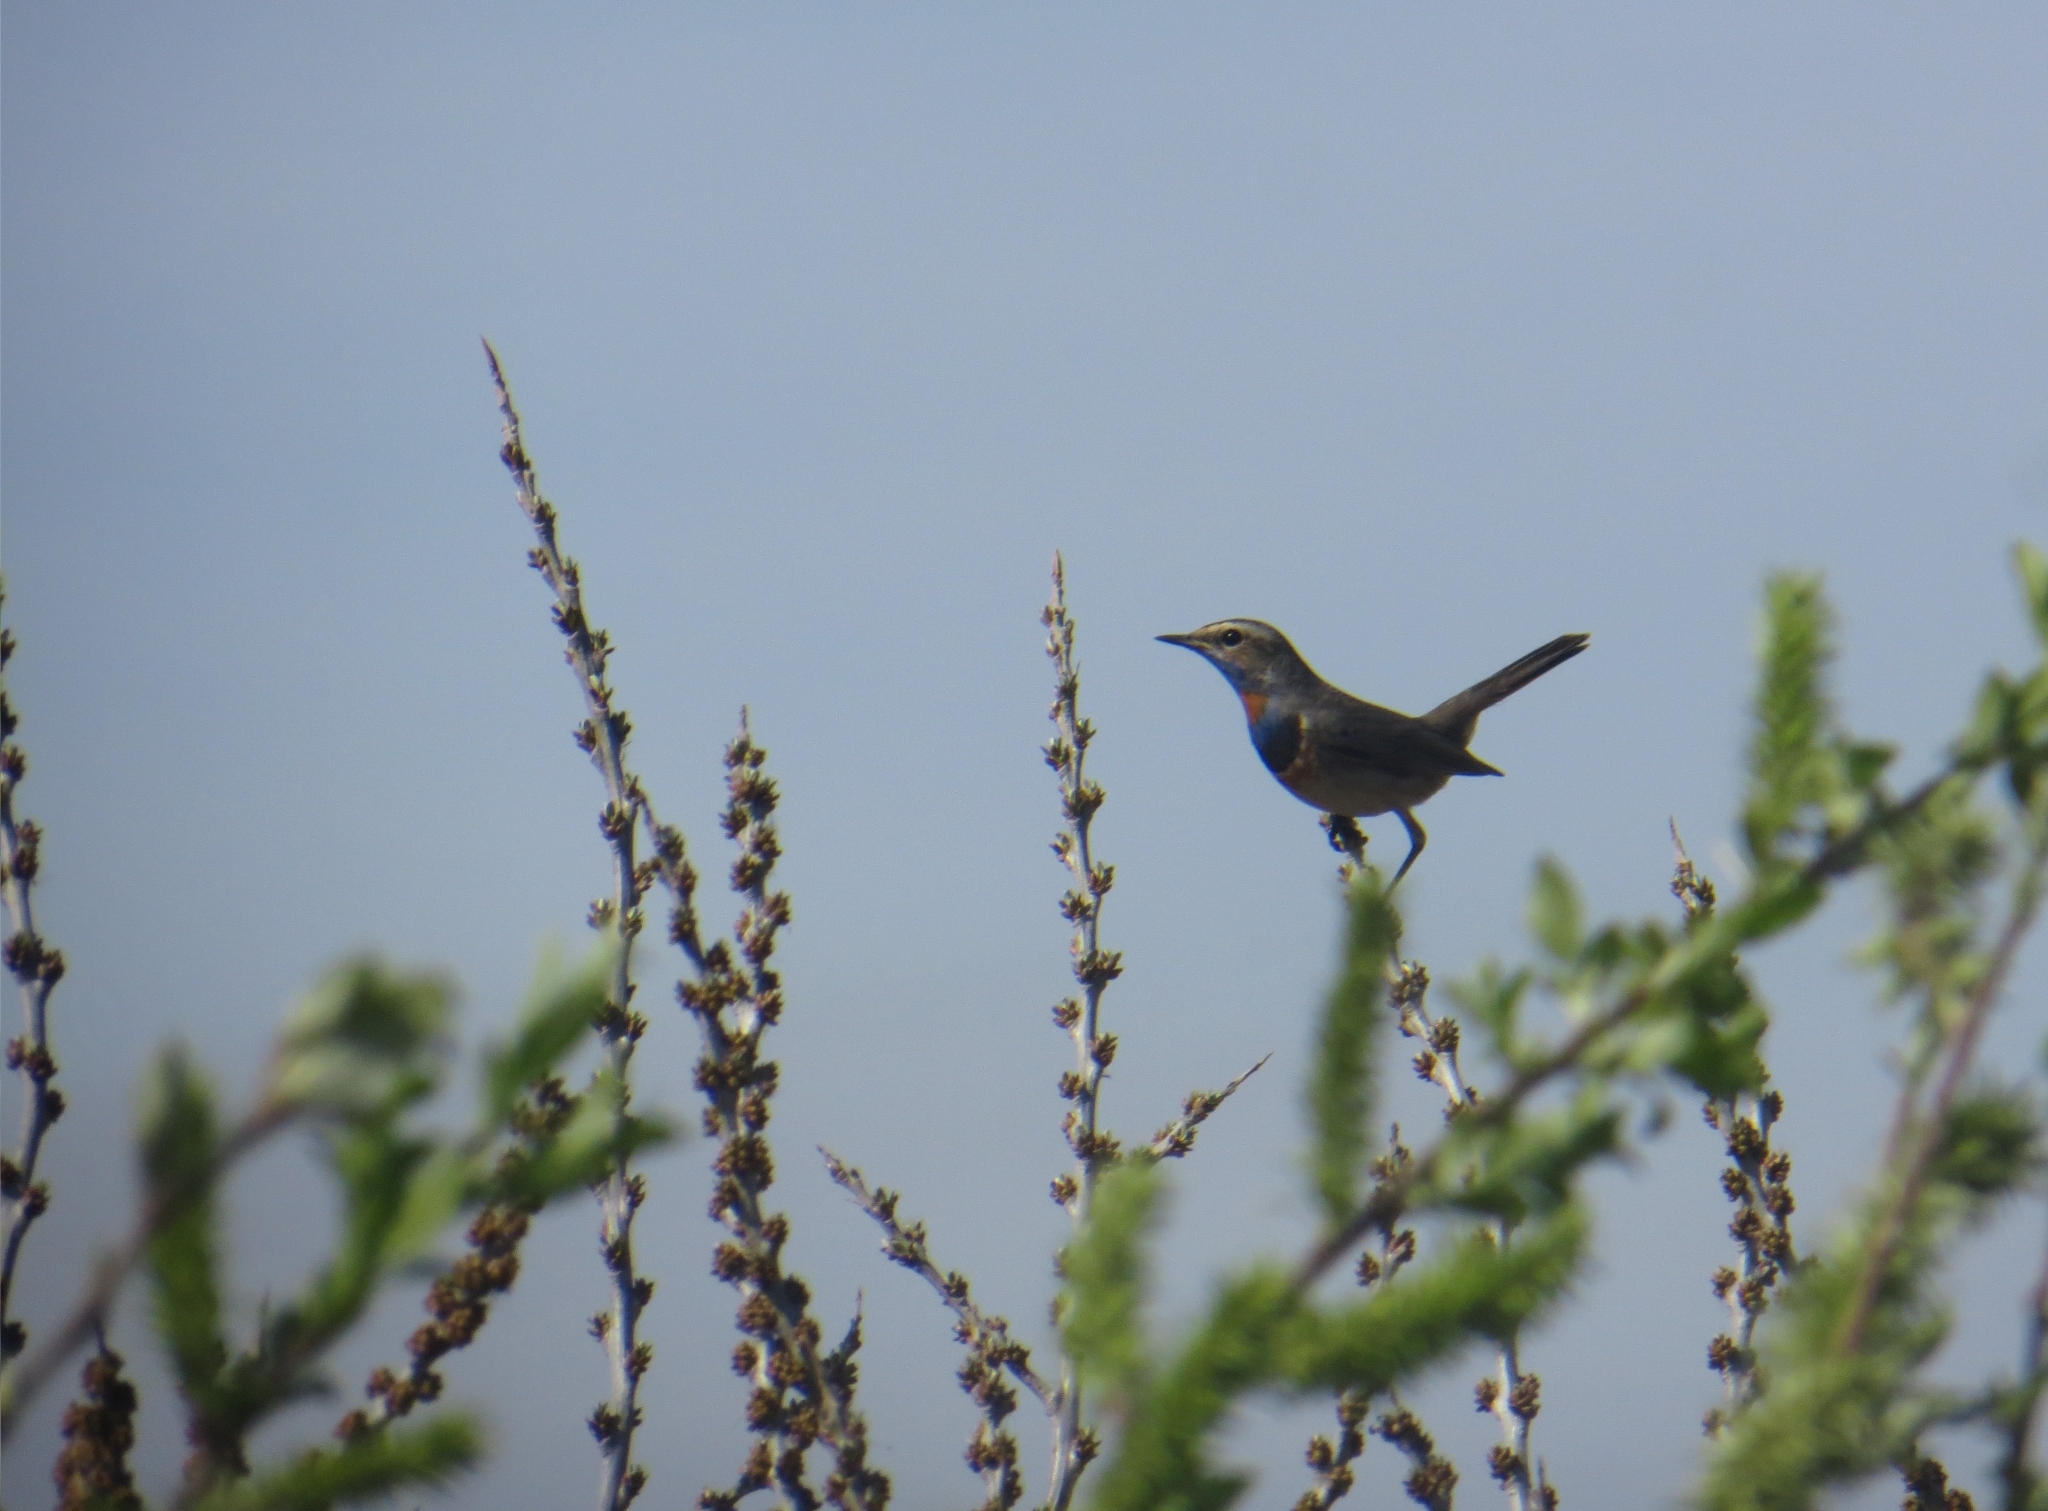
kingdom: Animalia
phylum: Chordata
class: Aves
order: Passeriformes
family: Muscicapidae
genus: Luscinia
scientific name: Luscinia svecica
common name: Bluethroat
